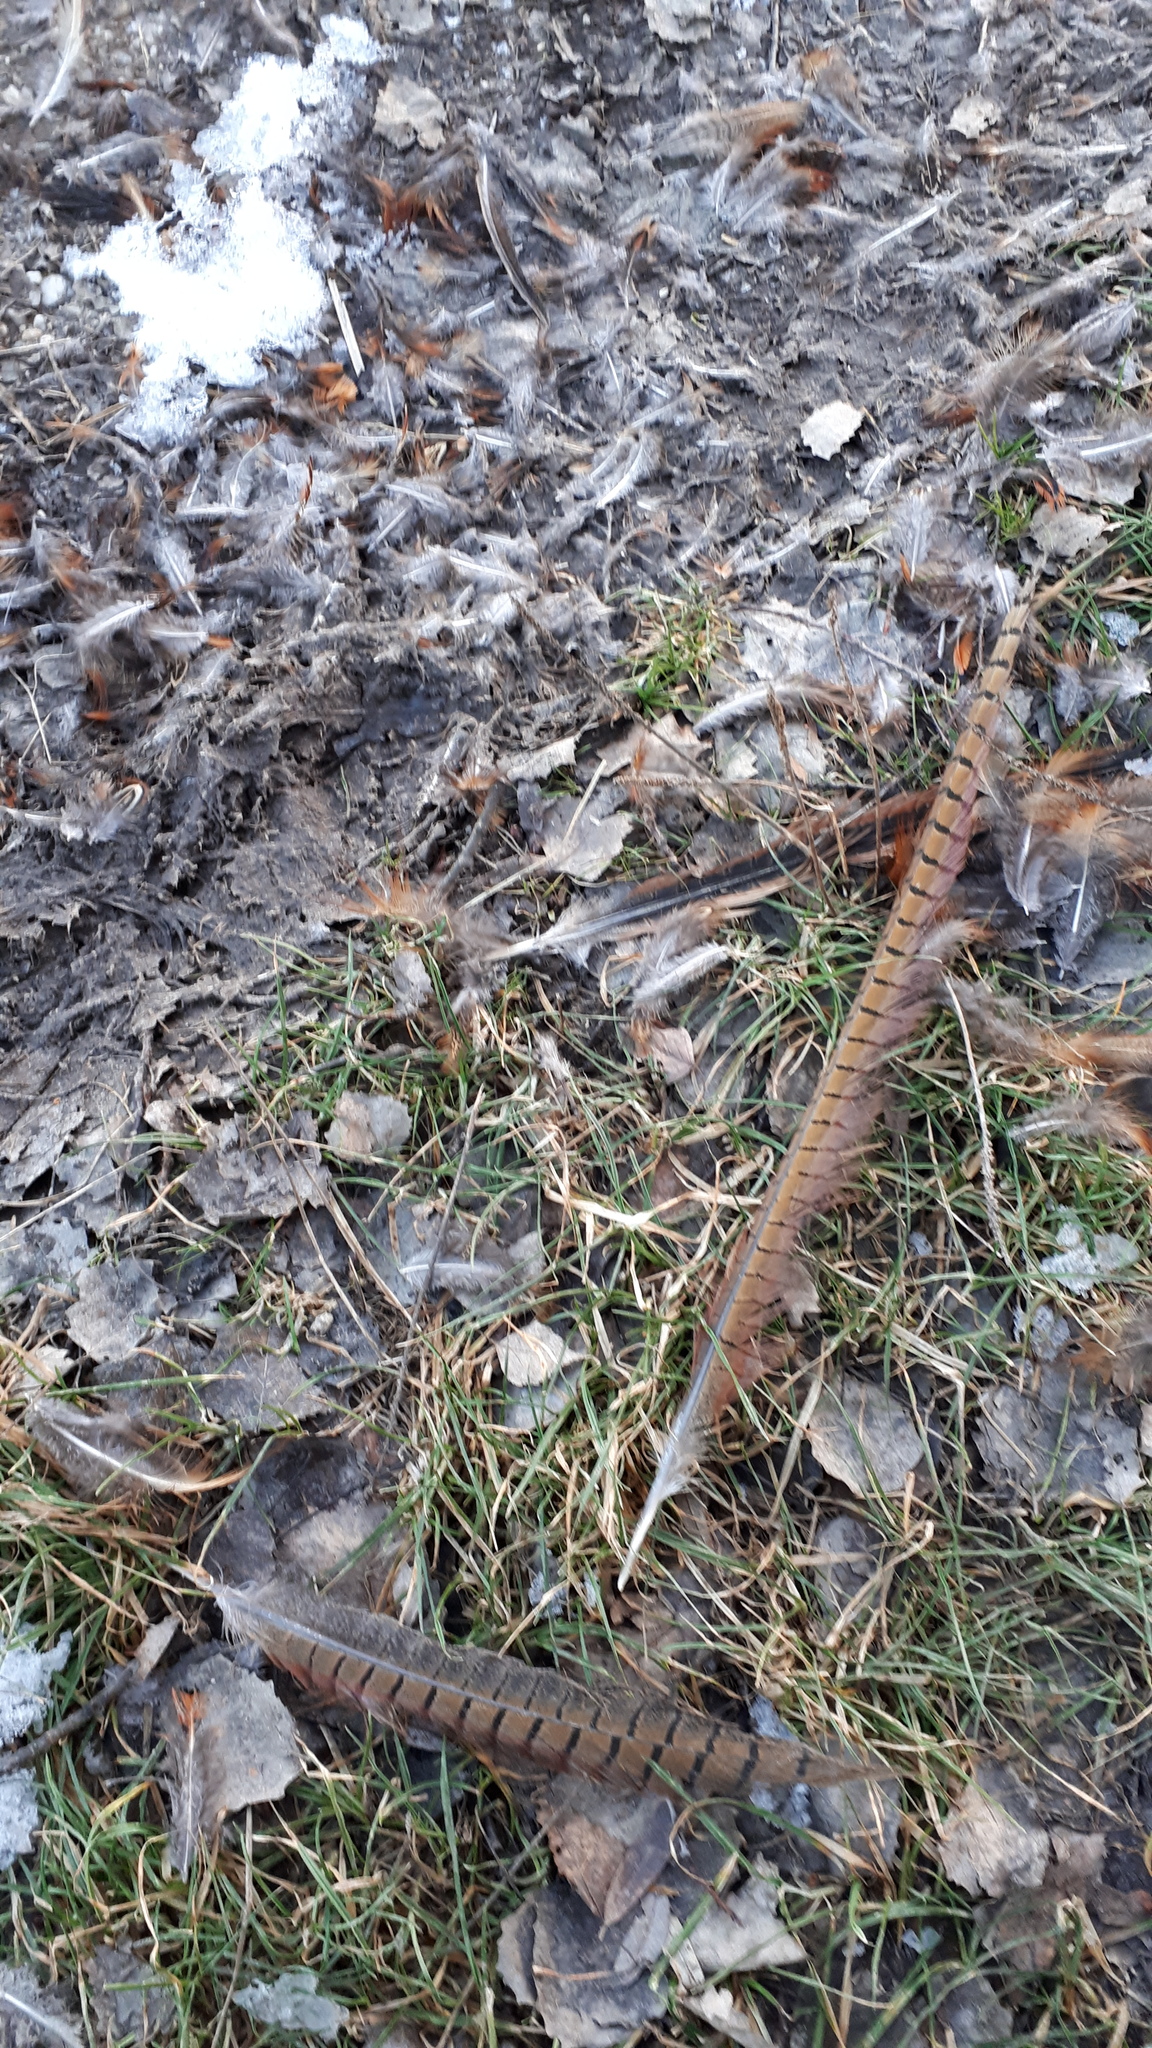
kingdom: Animalia
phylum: Chordata
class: Aves
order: Galliformes
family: Phasianidae
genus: Phasianus
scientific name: Phasianus colchicus
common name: Common pheasant
